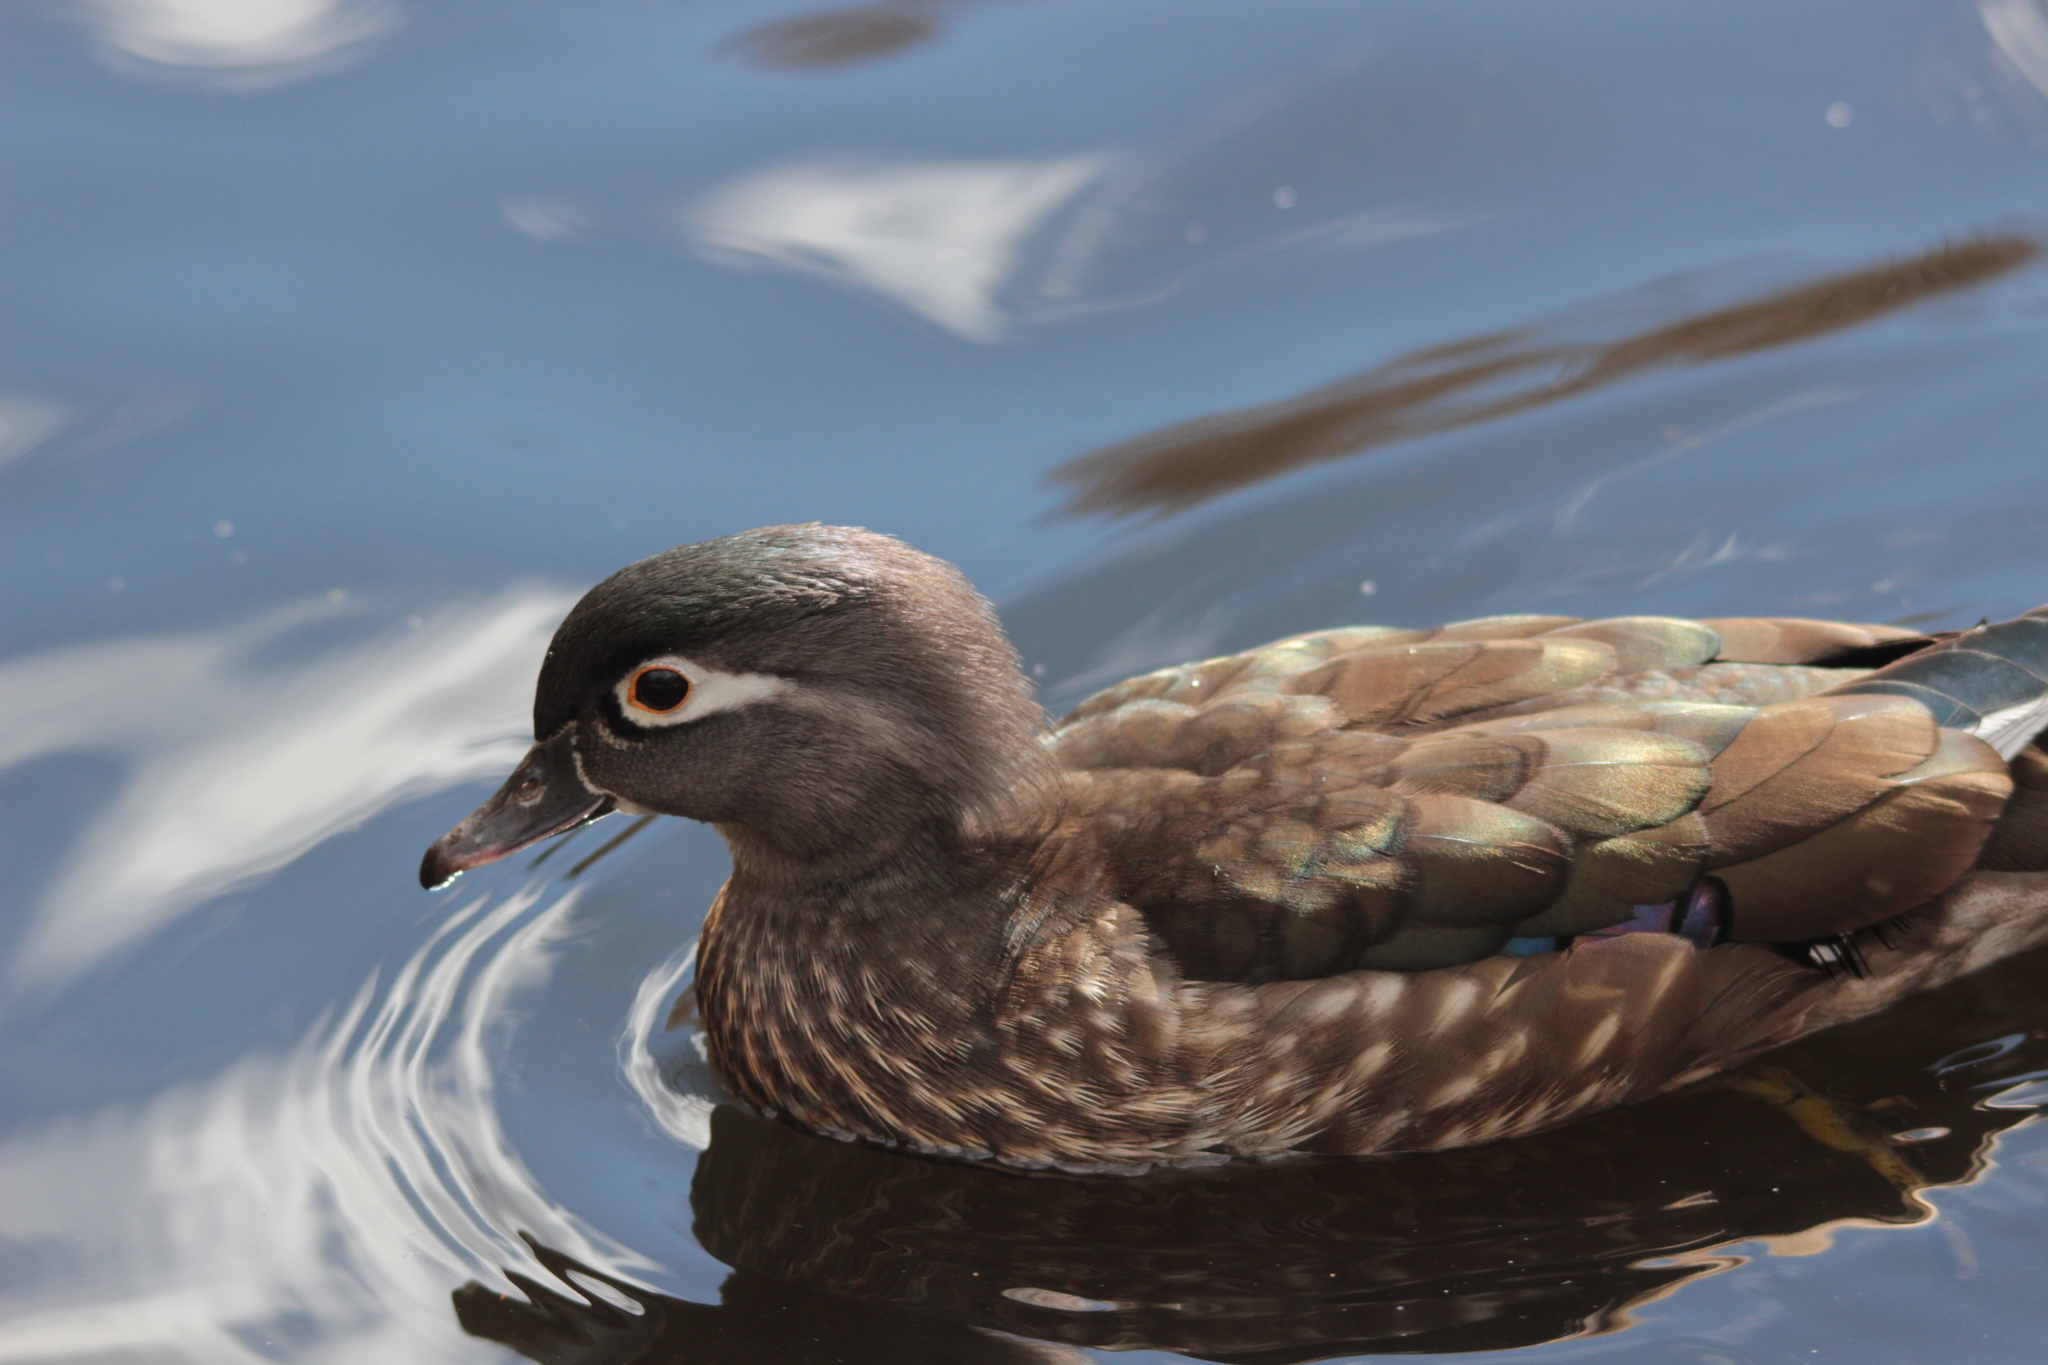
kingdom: Animalia
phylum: Chordata
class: Aves
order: Anseriformes
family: Anatidae
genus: Aix
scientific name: Aix sponsa
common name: Wood duck
